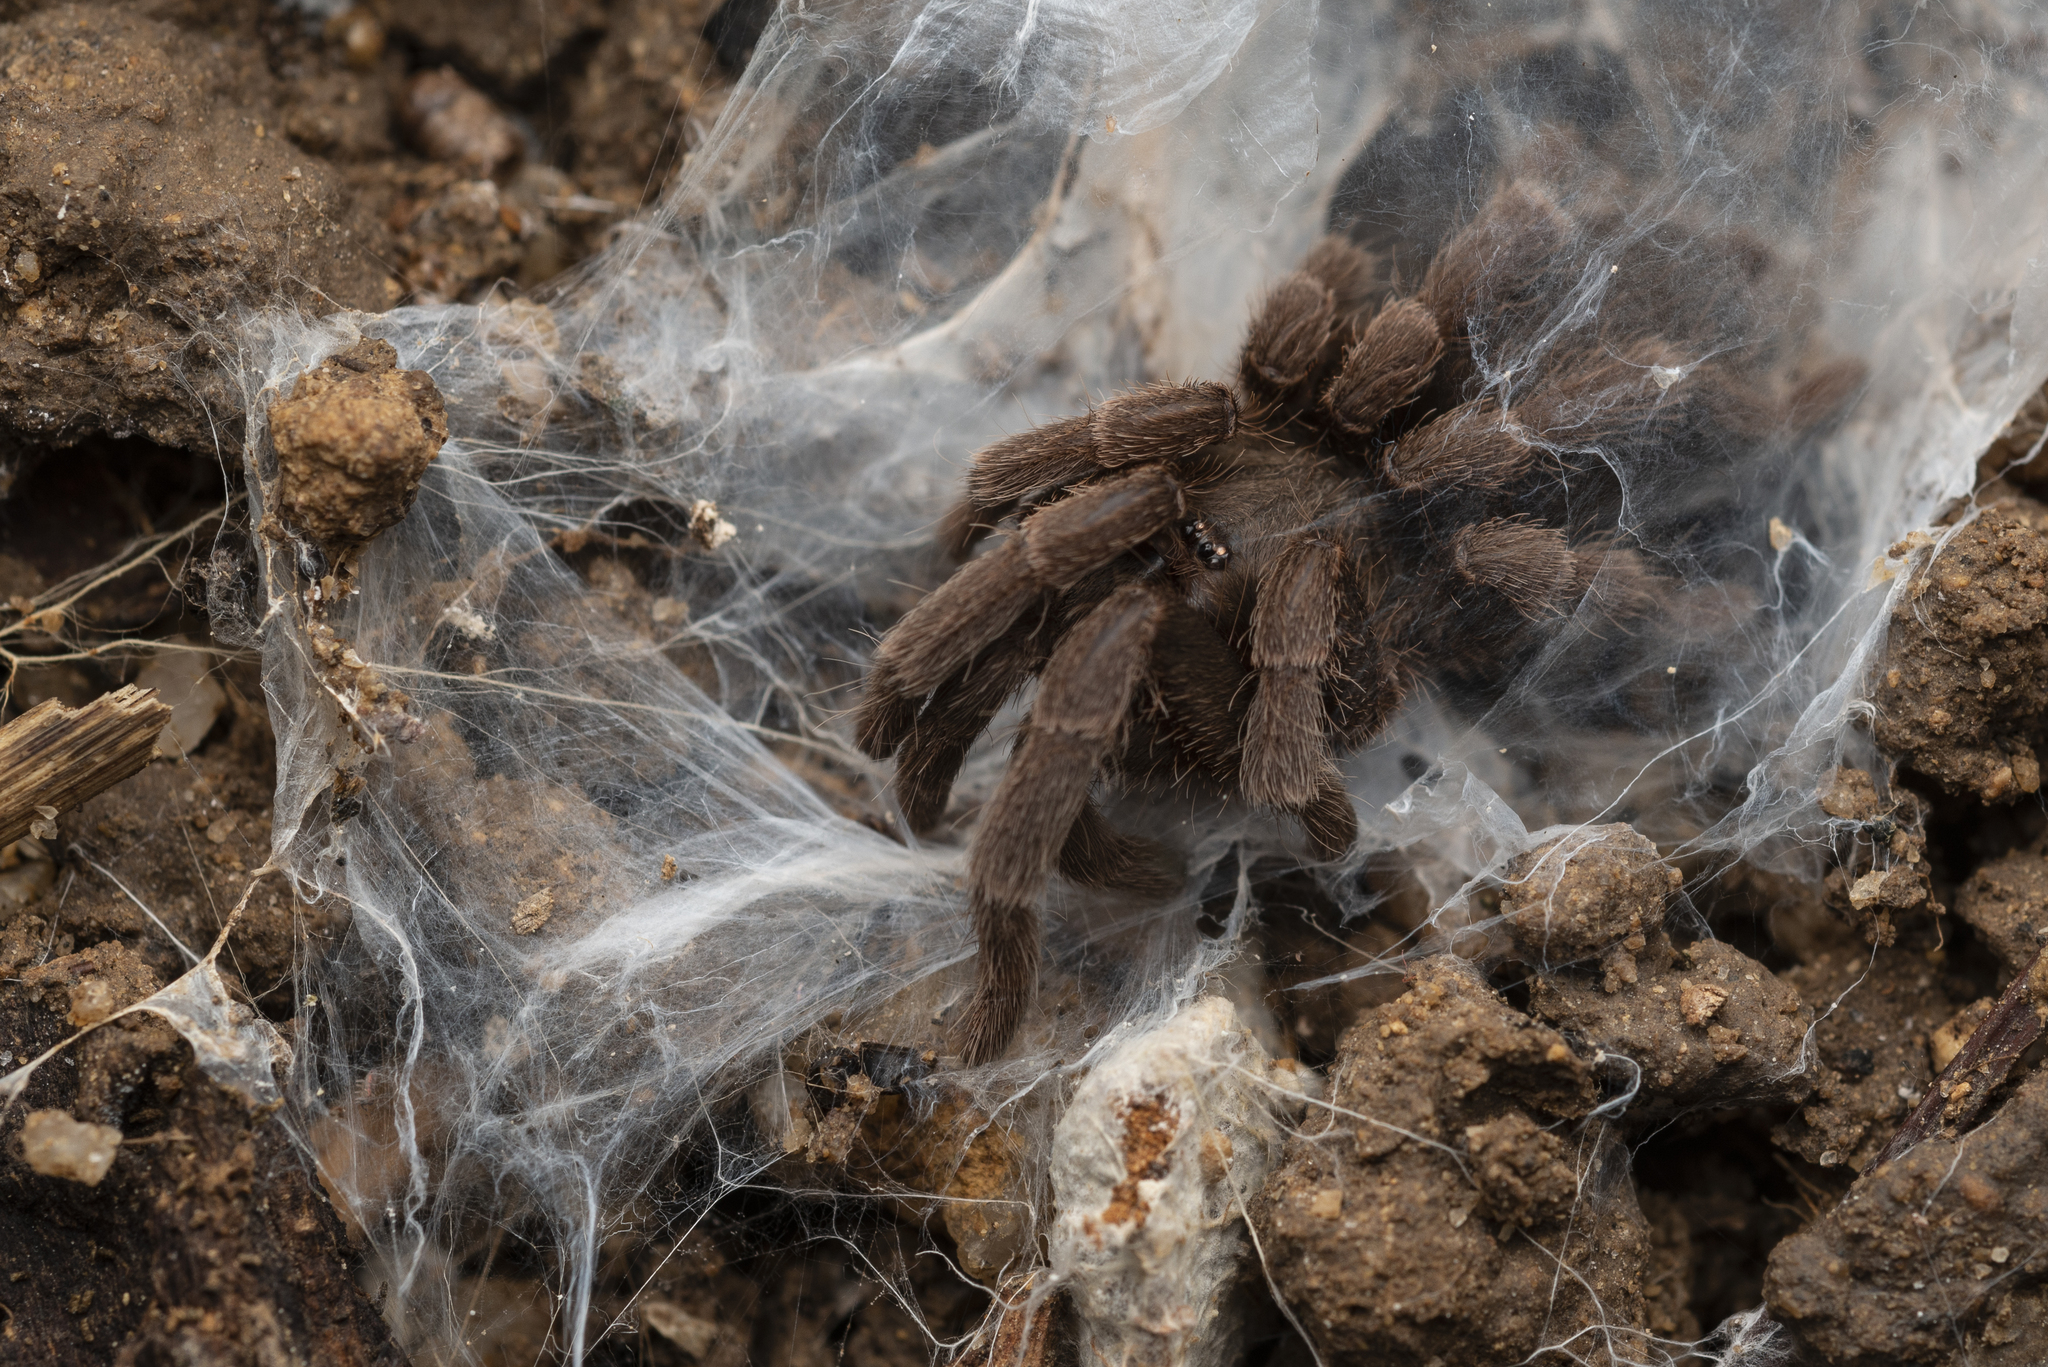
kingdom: Animalia
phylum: Arthropoda
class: Arachnida
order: Araneae
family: Theraphosidae
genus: Phlogiellus
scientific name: Phlogiellus
